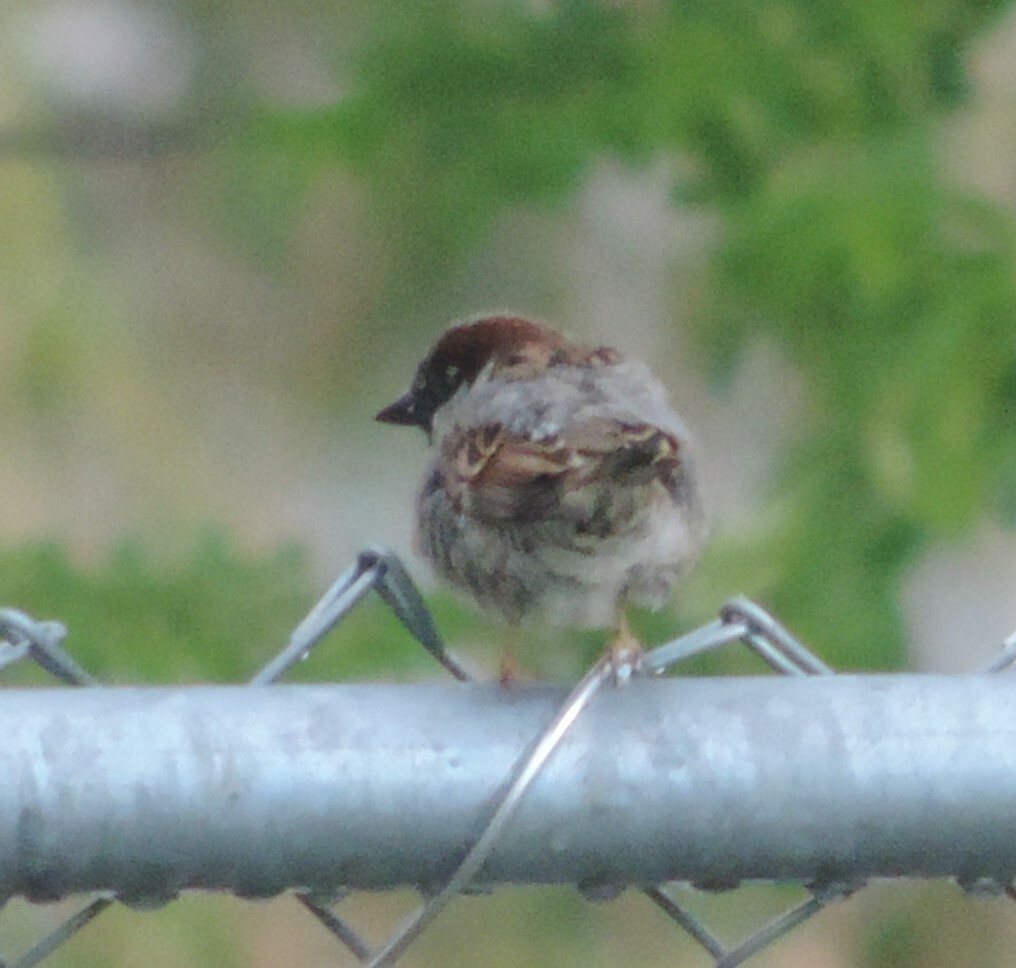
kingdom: Animalia
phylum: Chordata
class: Aves
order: Passeriformes
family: Passeridae
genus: Passer
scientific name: Passer domesticus
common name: House sparrow
